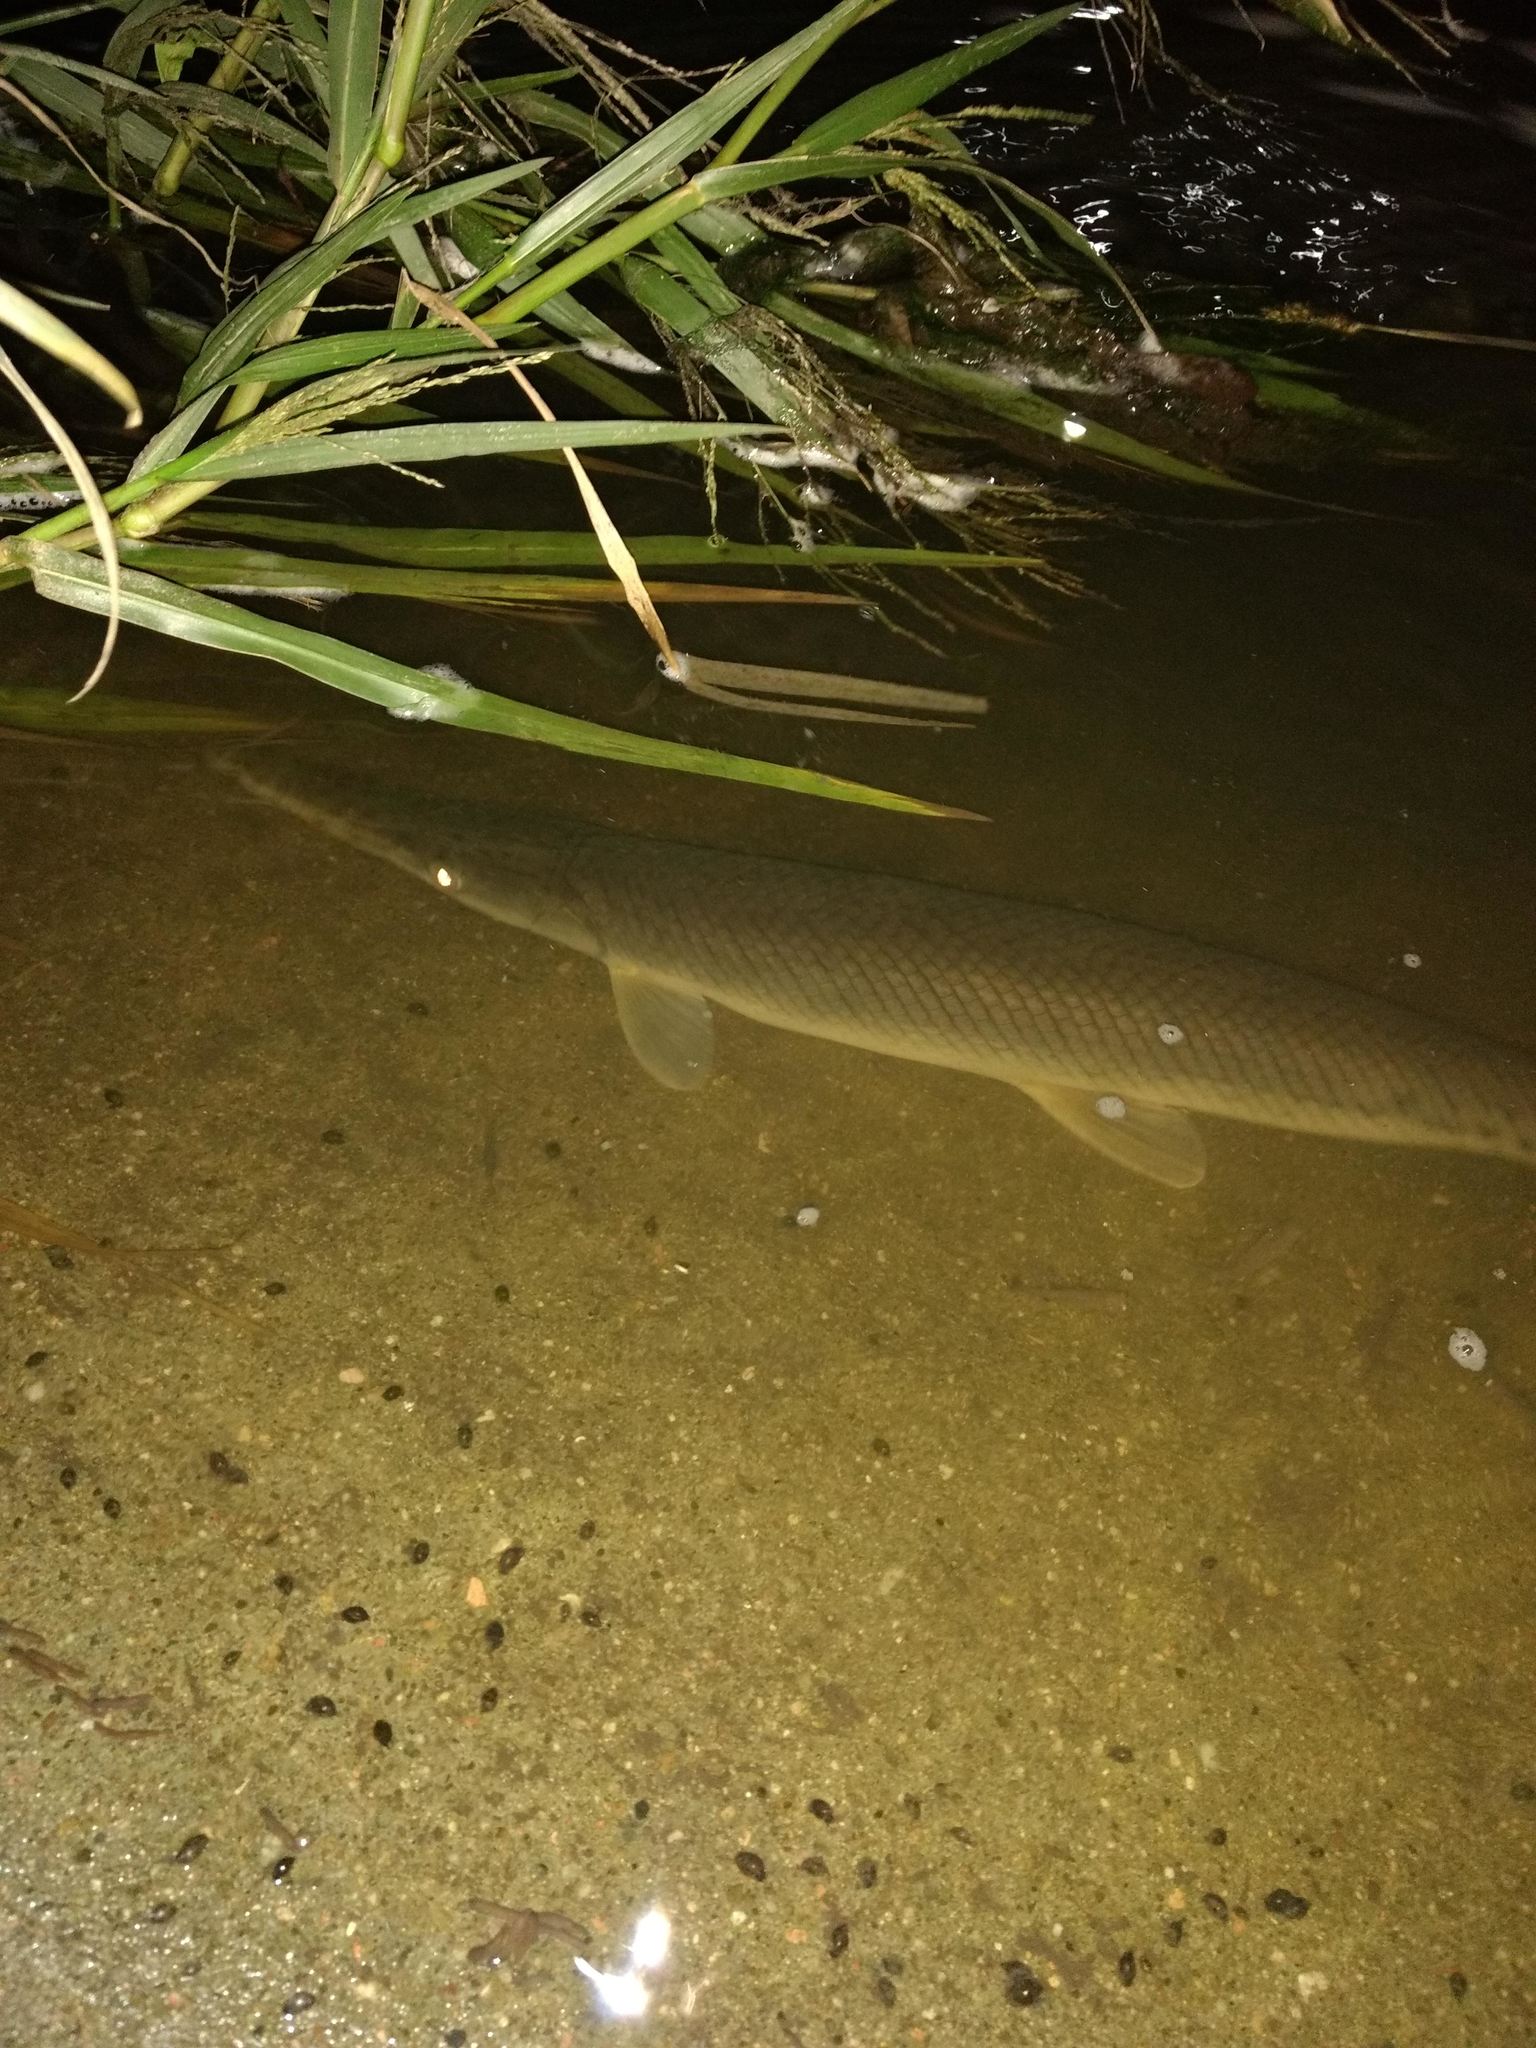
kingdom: Animalia
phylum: Chordata
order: Lepisosteiformes
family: Lepisosteidae
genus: Lepisosteus
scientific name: Lepisosteus platostomus
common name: Shortnose gar
